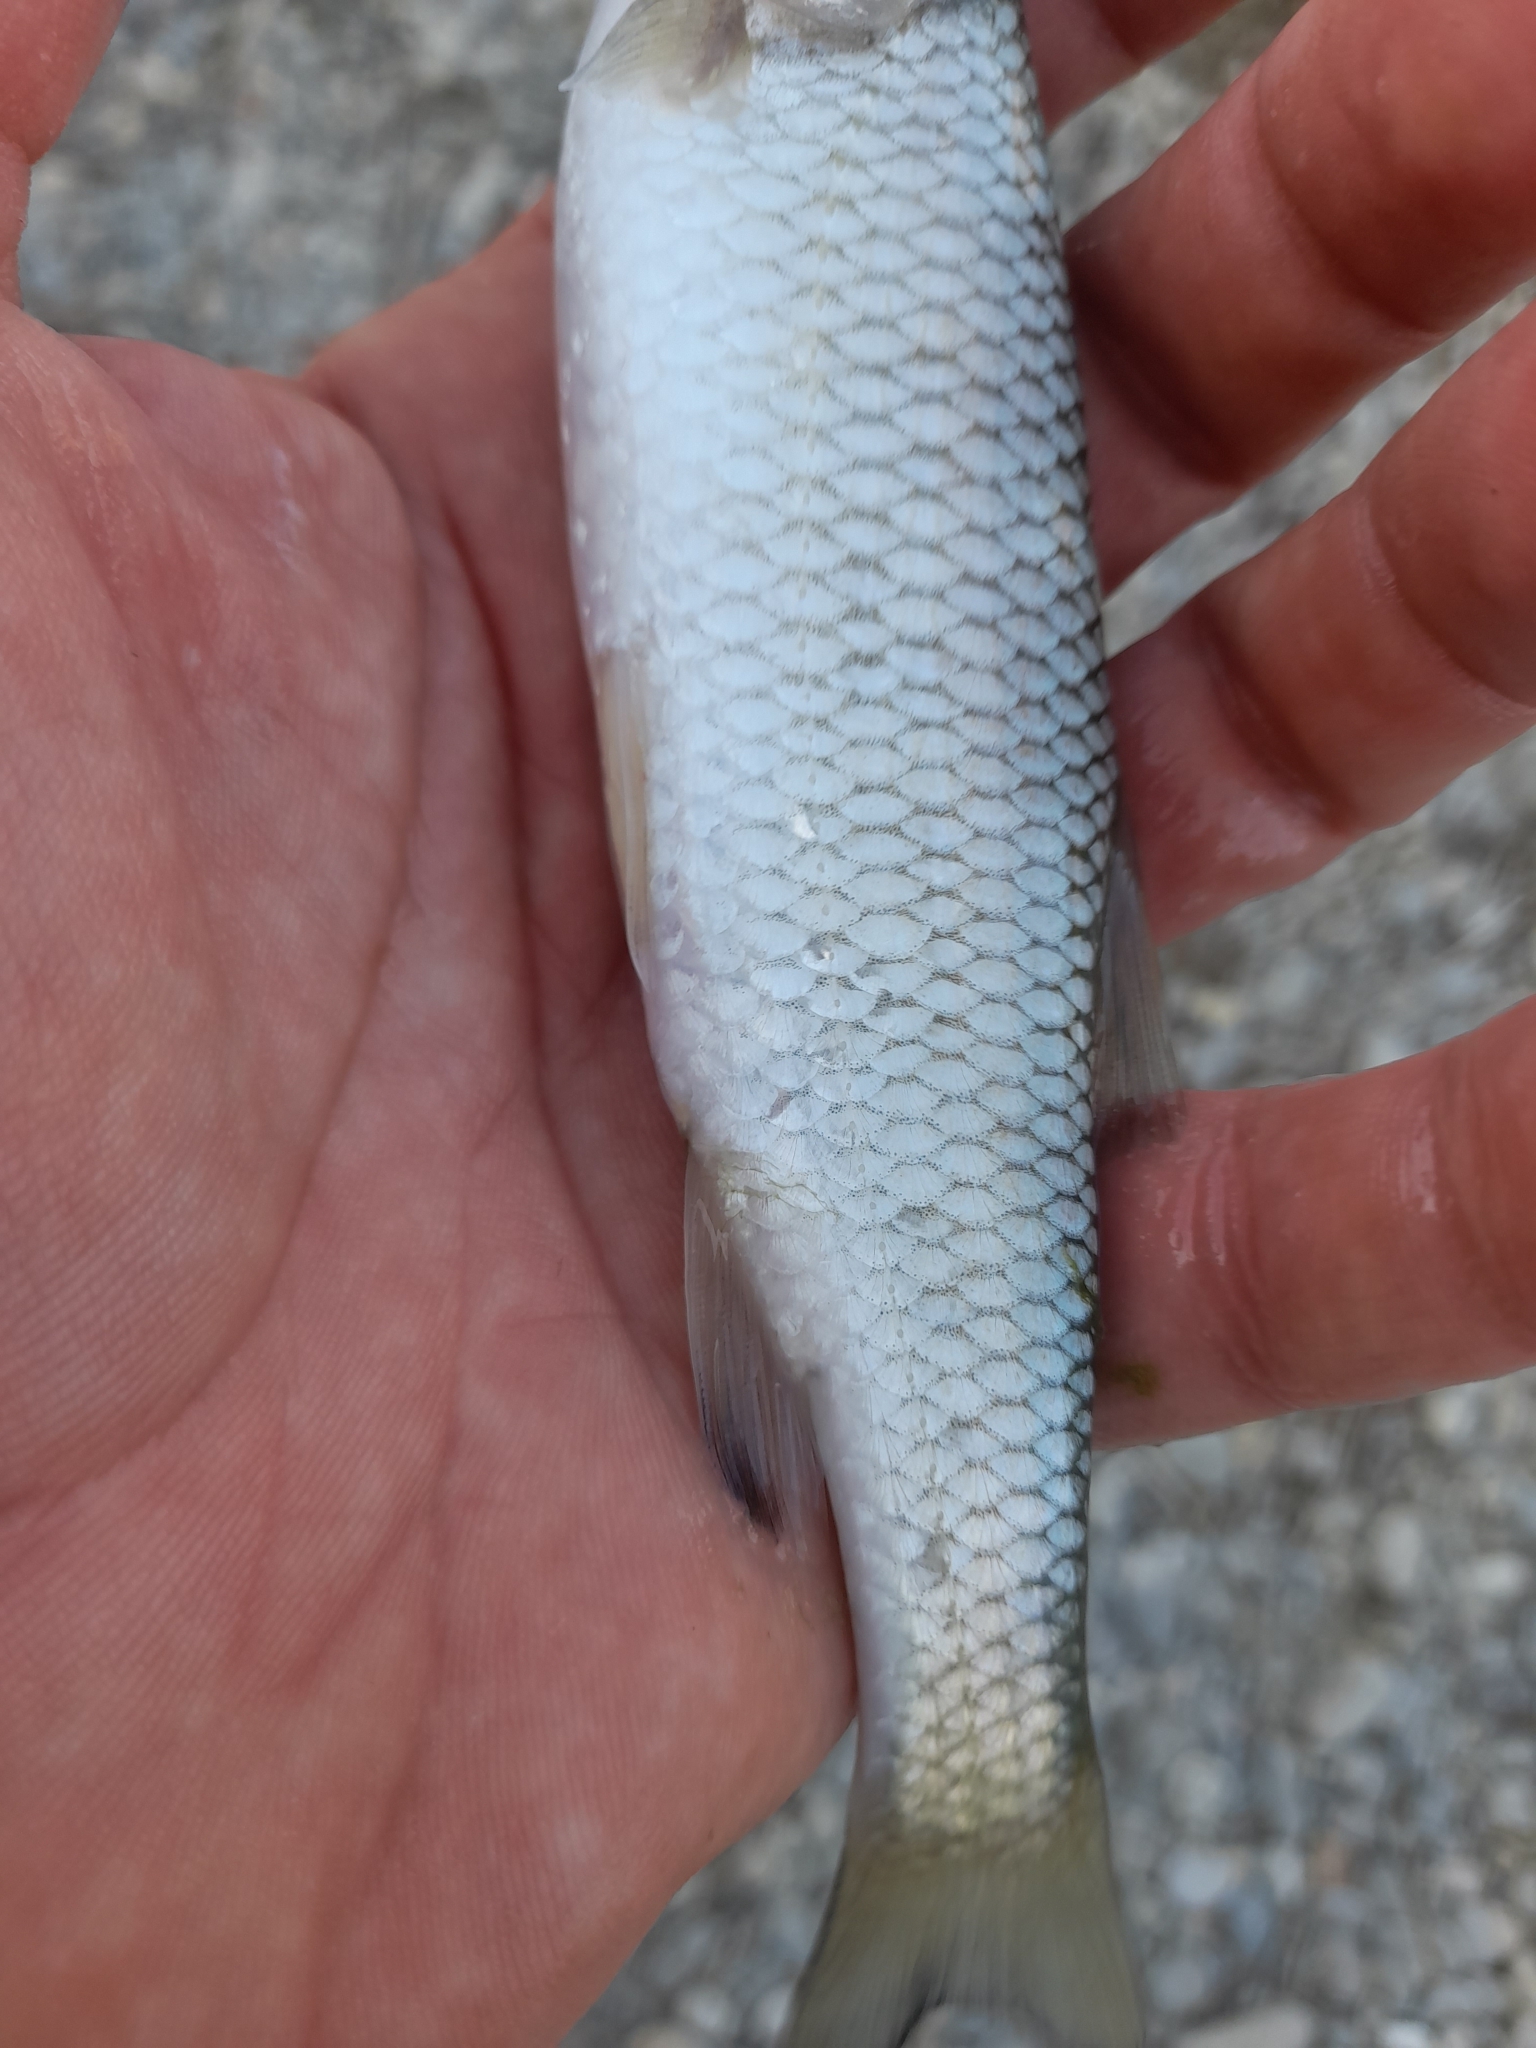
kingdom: Animalia
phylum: Chordata
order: Cypriniformes
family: Cyprinidae
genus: Squalius
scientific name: Squalius squalus
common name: Italian chub
